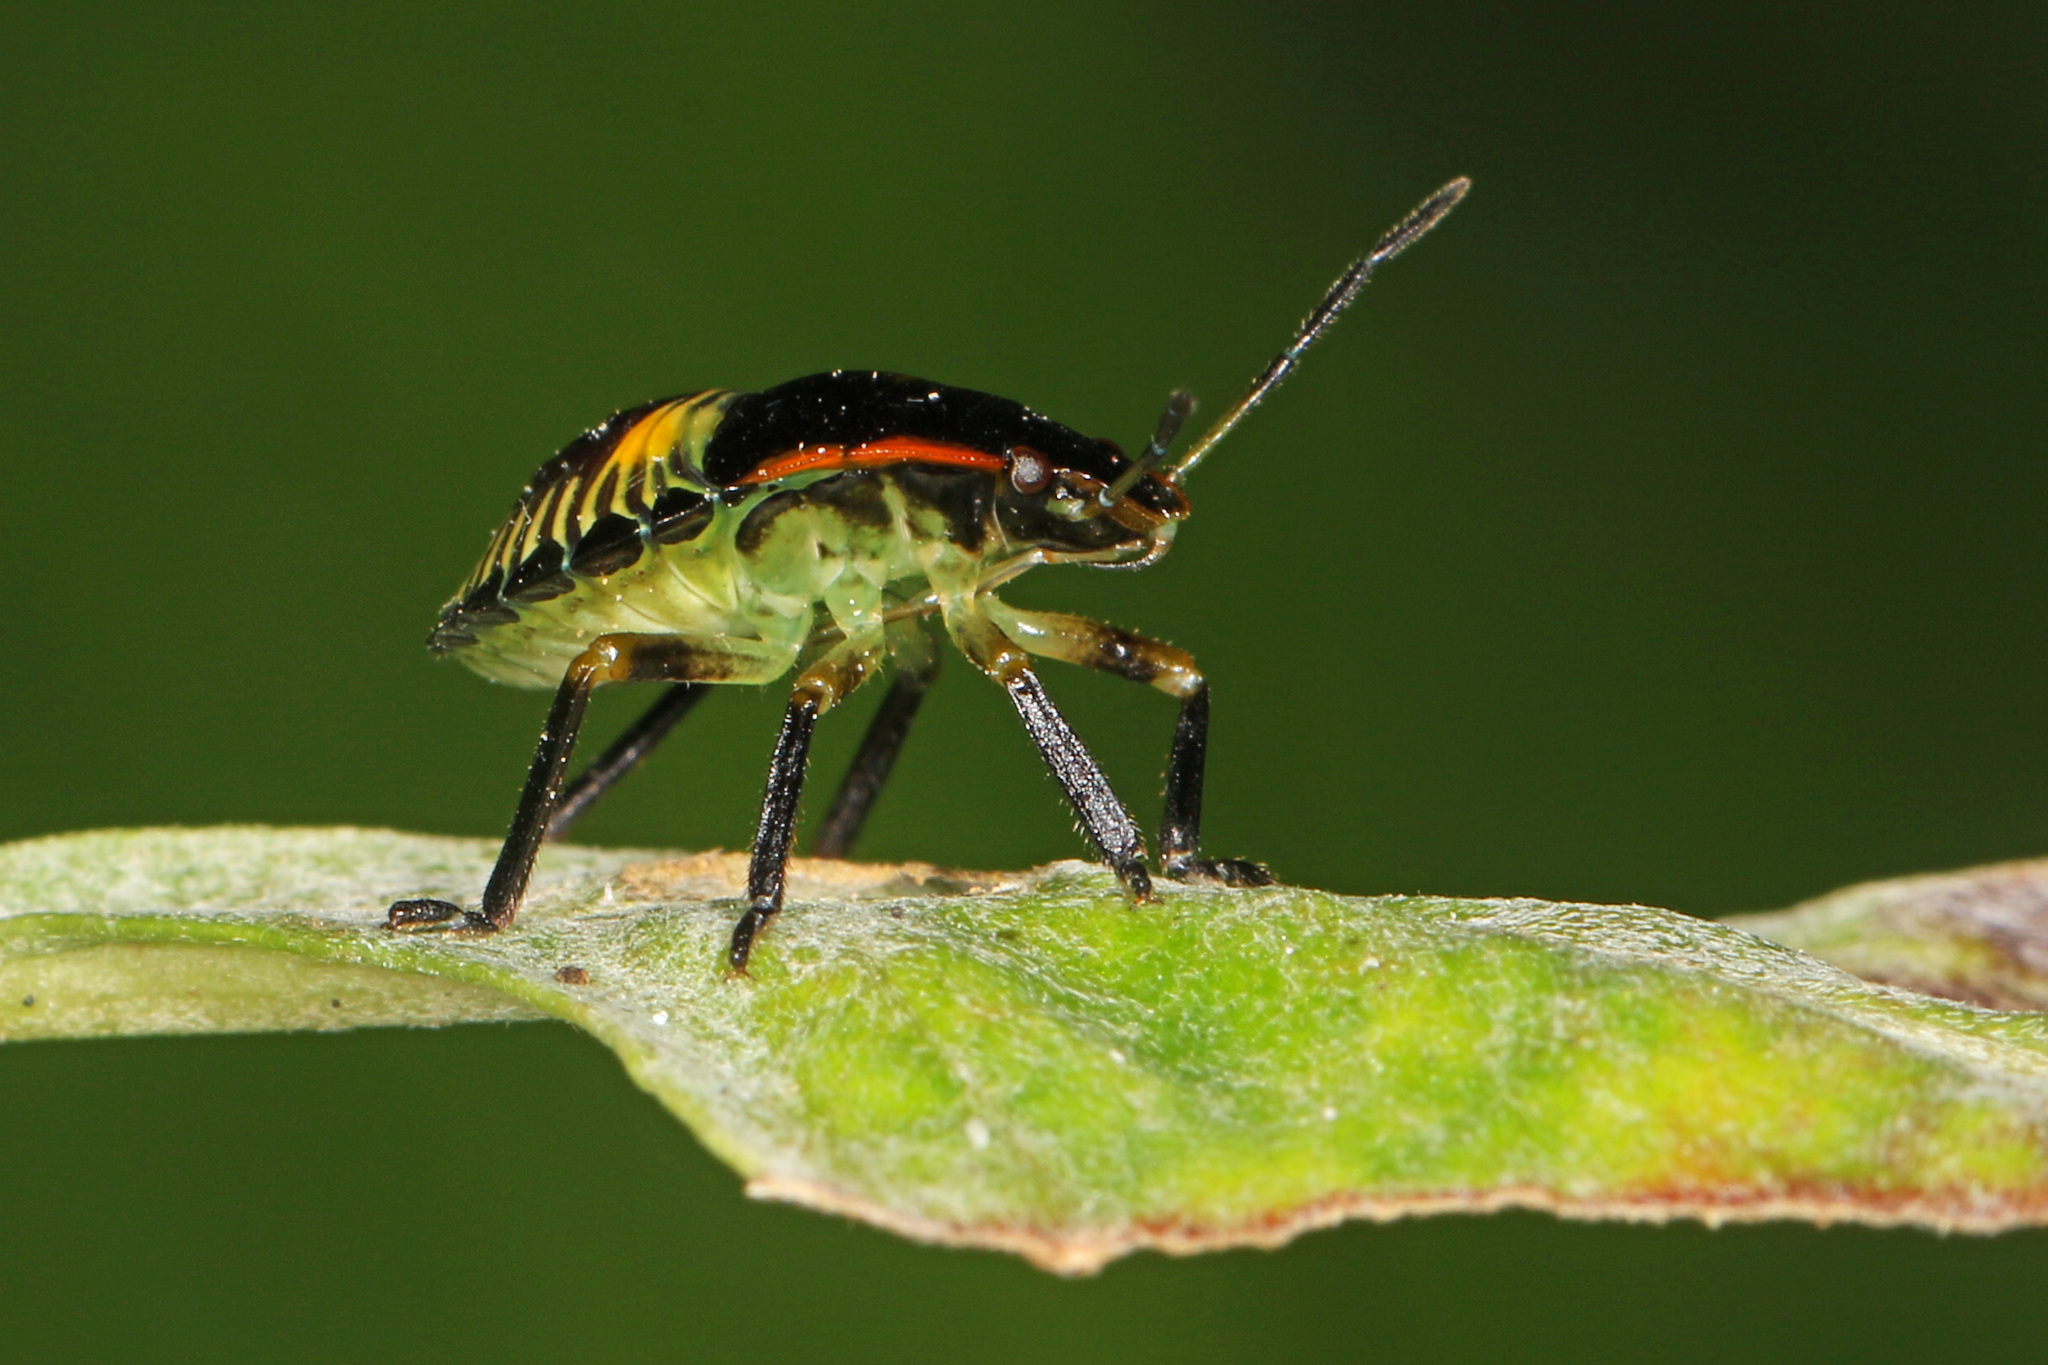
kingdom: Animalia
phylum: Arthropoda
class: Insecta
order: Hemiptera
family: Pentatomidae
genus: Chinavia
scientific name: Chinavia hilaris
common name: Green stink bug
